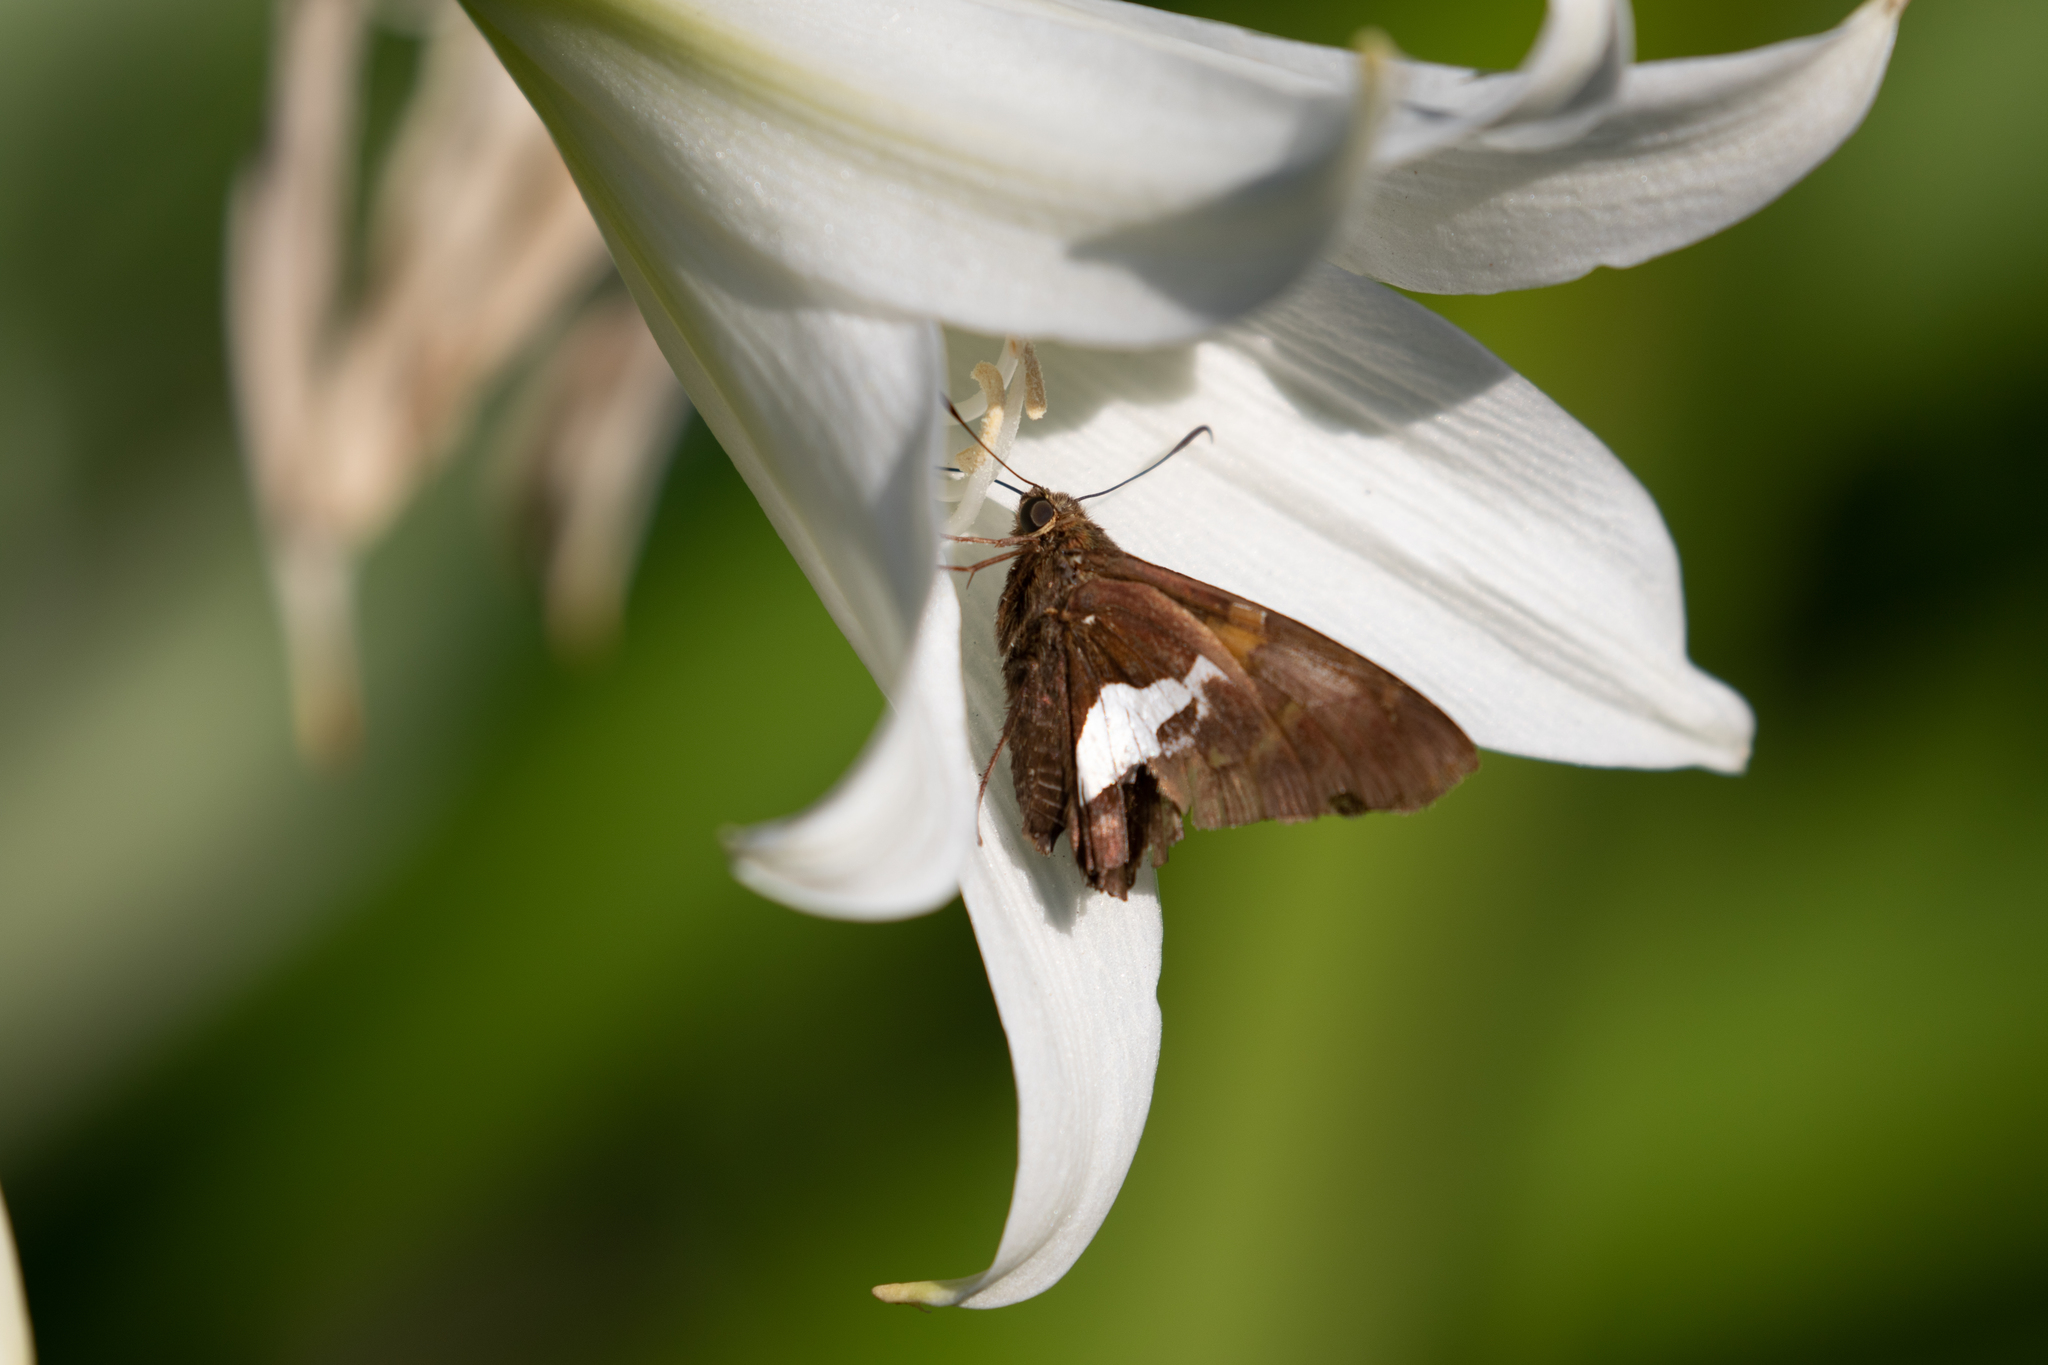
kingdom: Animalia
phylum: Arthropoda
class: Insecta
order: Lepidoptera
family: Hesperiidae
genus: Epargyreus
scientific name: Epargyreus clarus
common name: Silver-spotted skipper
